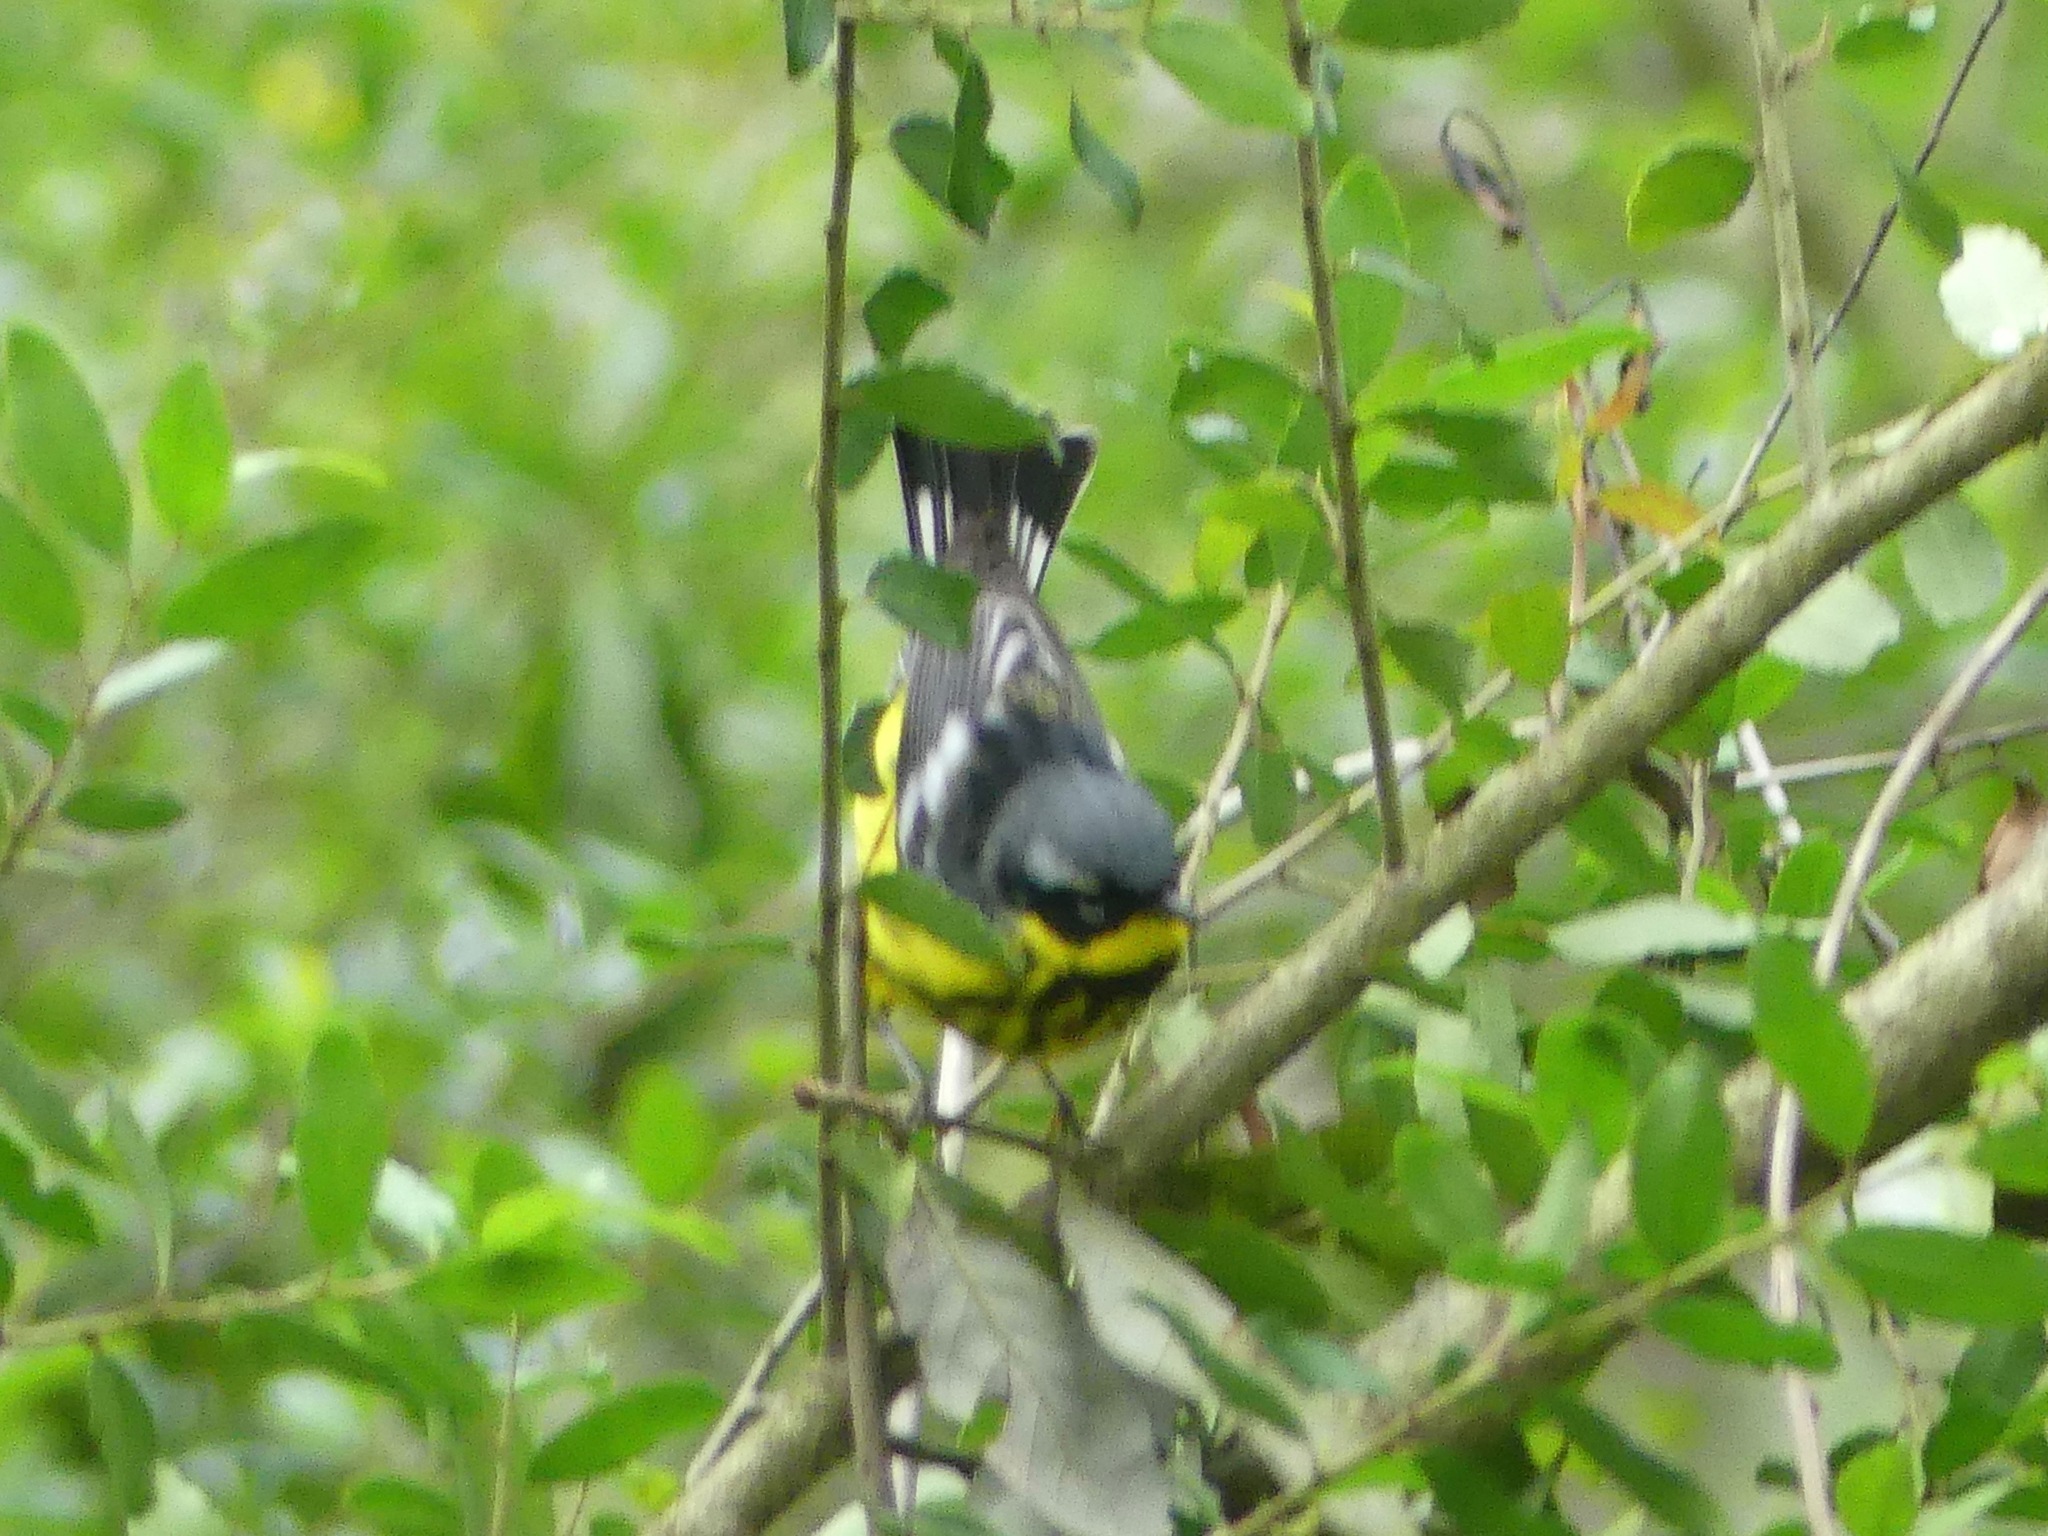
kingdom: Animalia
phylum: Chordata
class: Aves
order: Passeriformes
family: Parulidae
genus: Setophaga
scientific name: Setophaga magnolia
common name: Magnolia warbler
